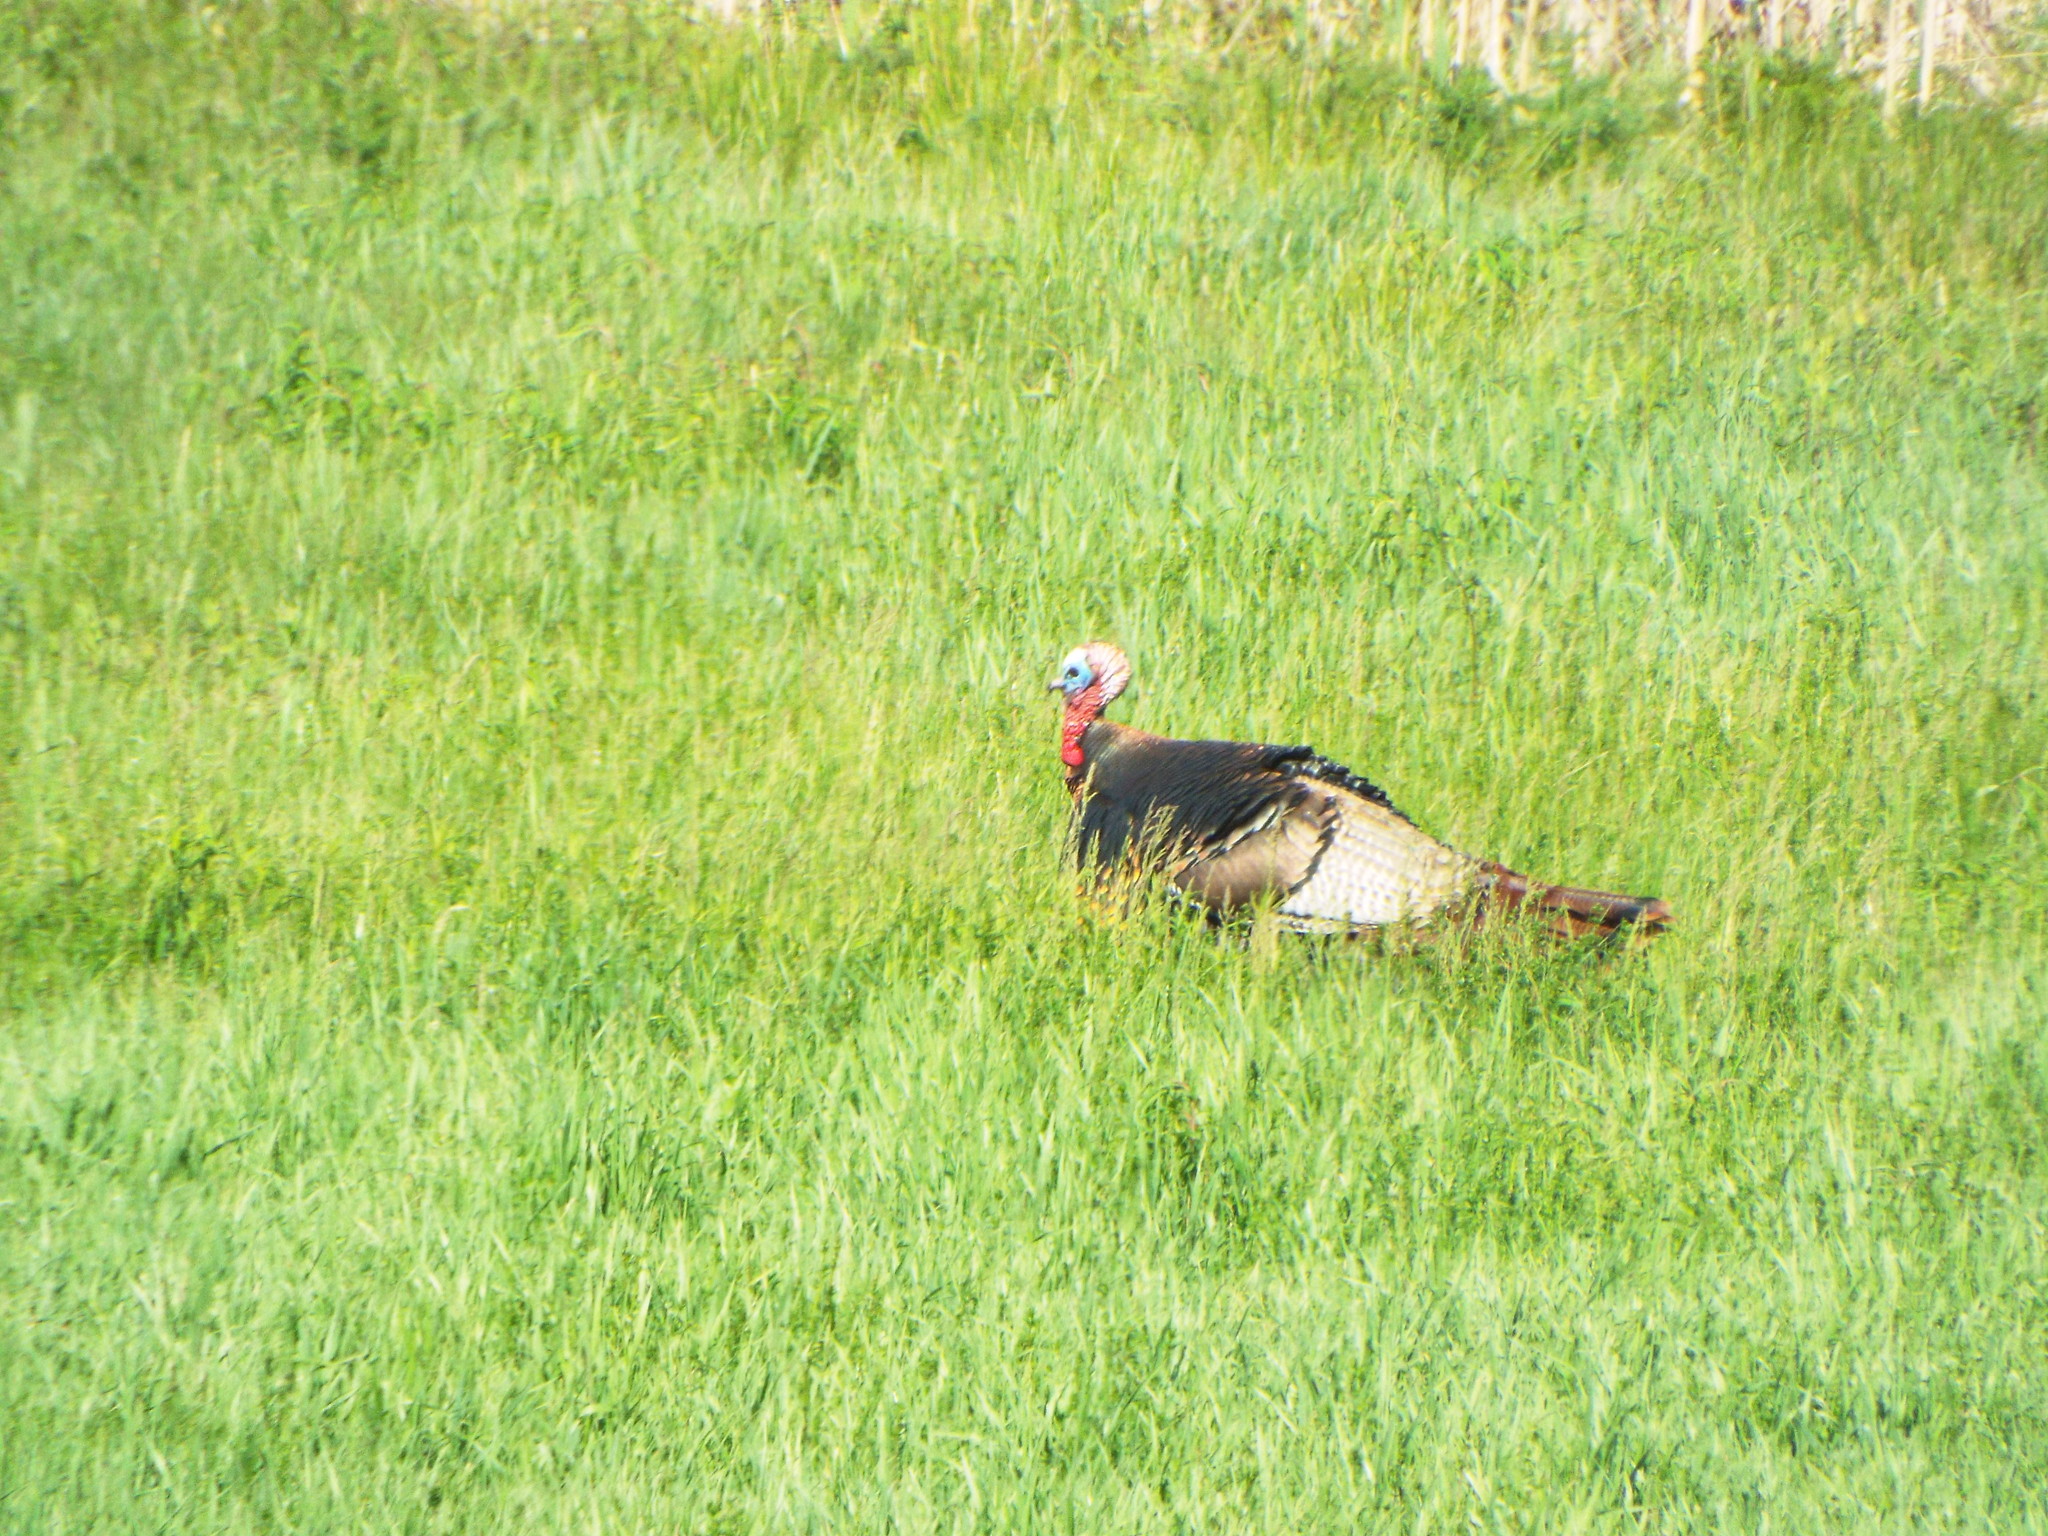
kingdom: Animalia
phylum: Chordata
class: Aves
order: Galliformes
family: Phasianidae
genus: Meleagris
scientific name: Meleagris gallopavo
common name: Wild turkey
